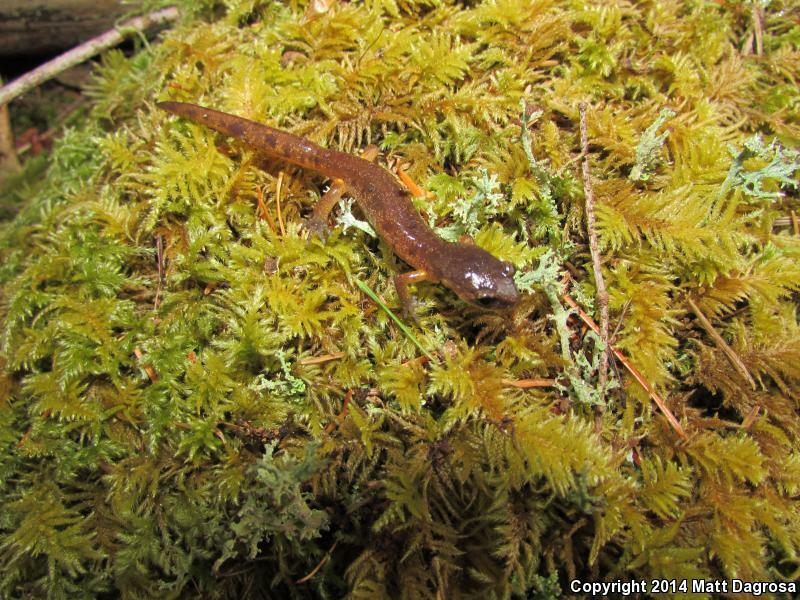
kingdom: Animalia
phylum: Chordata
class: Amphibia
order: Caudata
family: Plethodontidae
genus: Ensatina
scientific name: Ensatina eschscholtzii
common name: Ensatina
